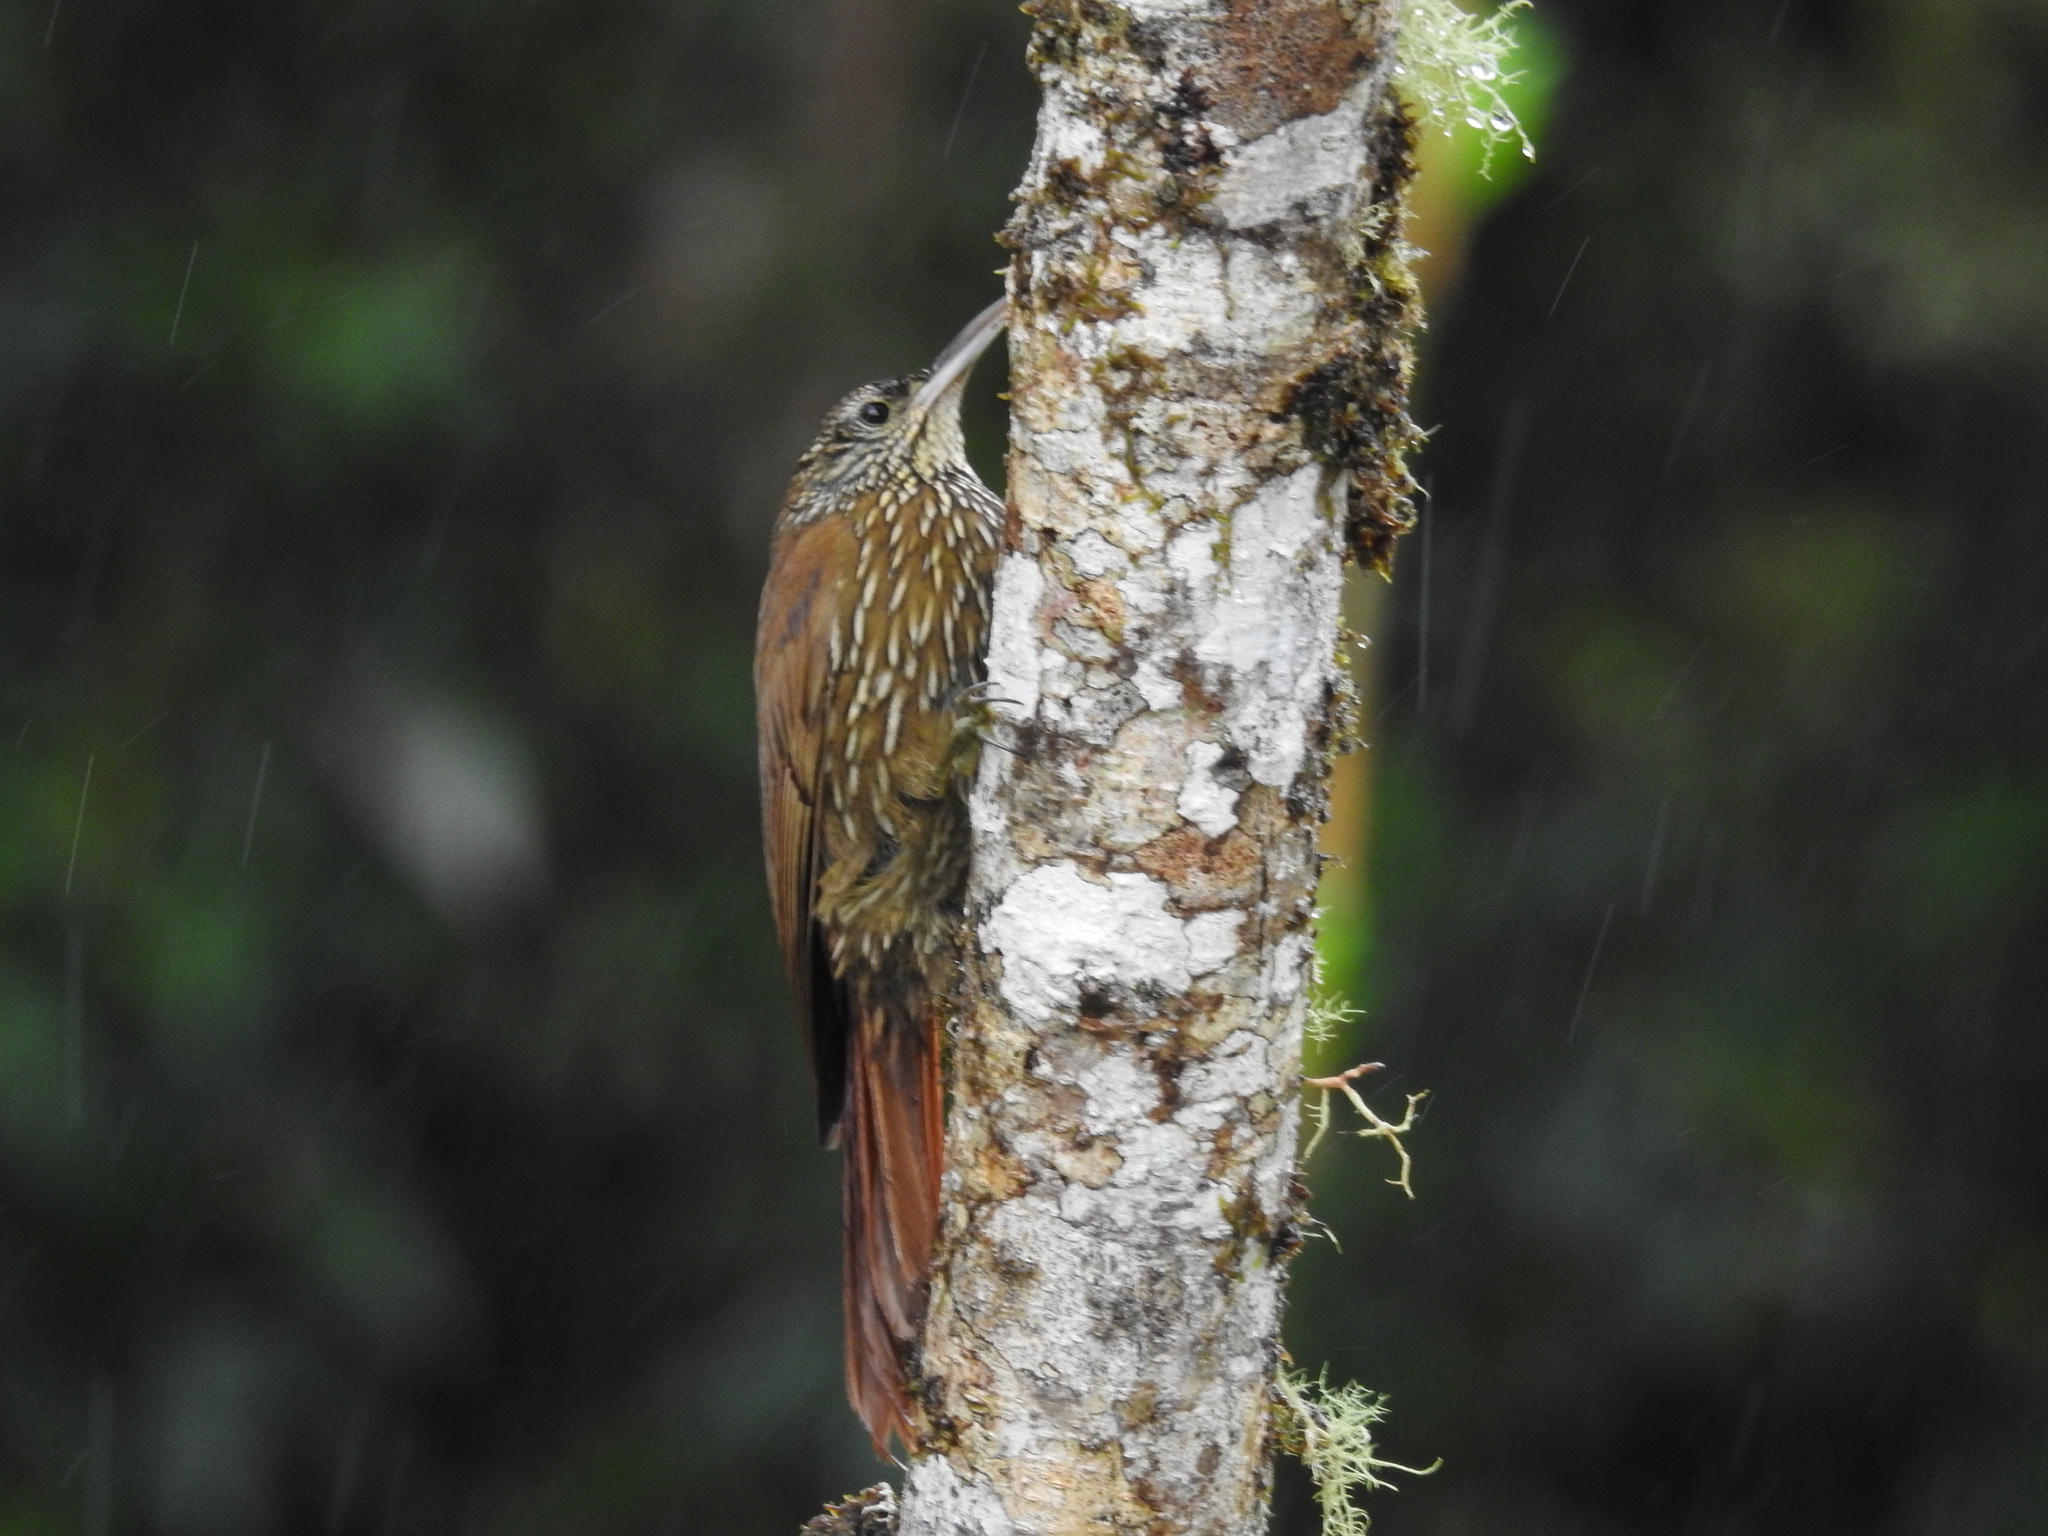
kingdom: Animalia
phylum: Chordata
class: Aves
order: Passeriformes
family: Furnariidae
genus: Lepidocolaptes
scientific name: Lepidocolaptes lacrymiger
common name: Montane woodcreeper
